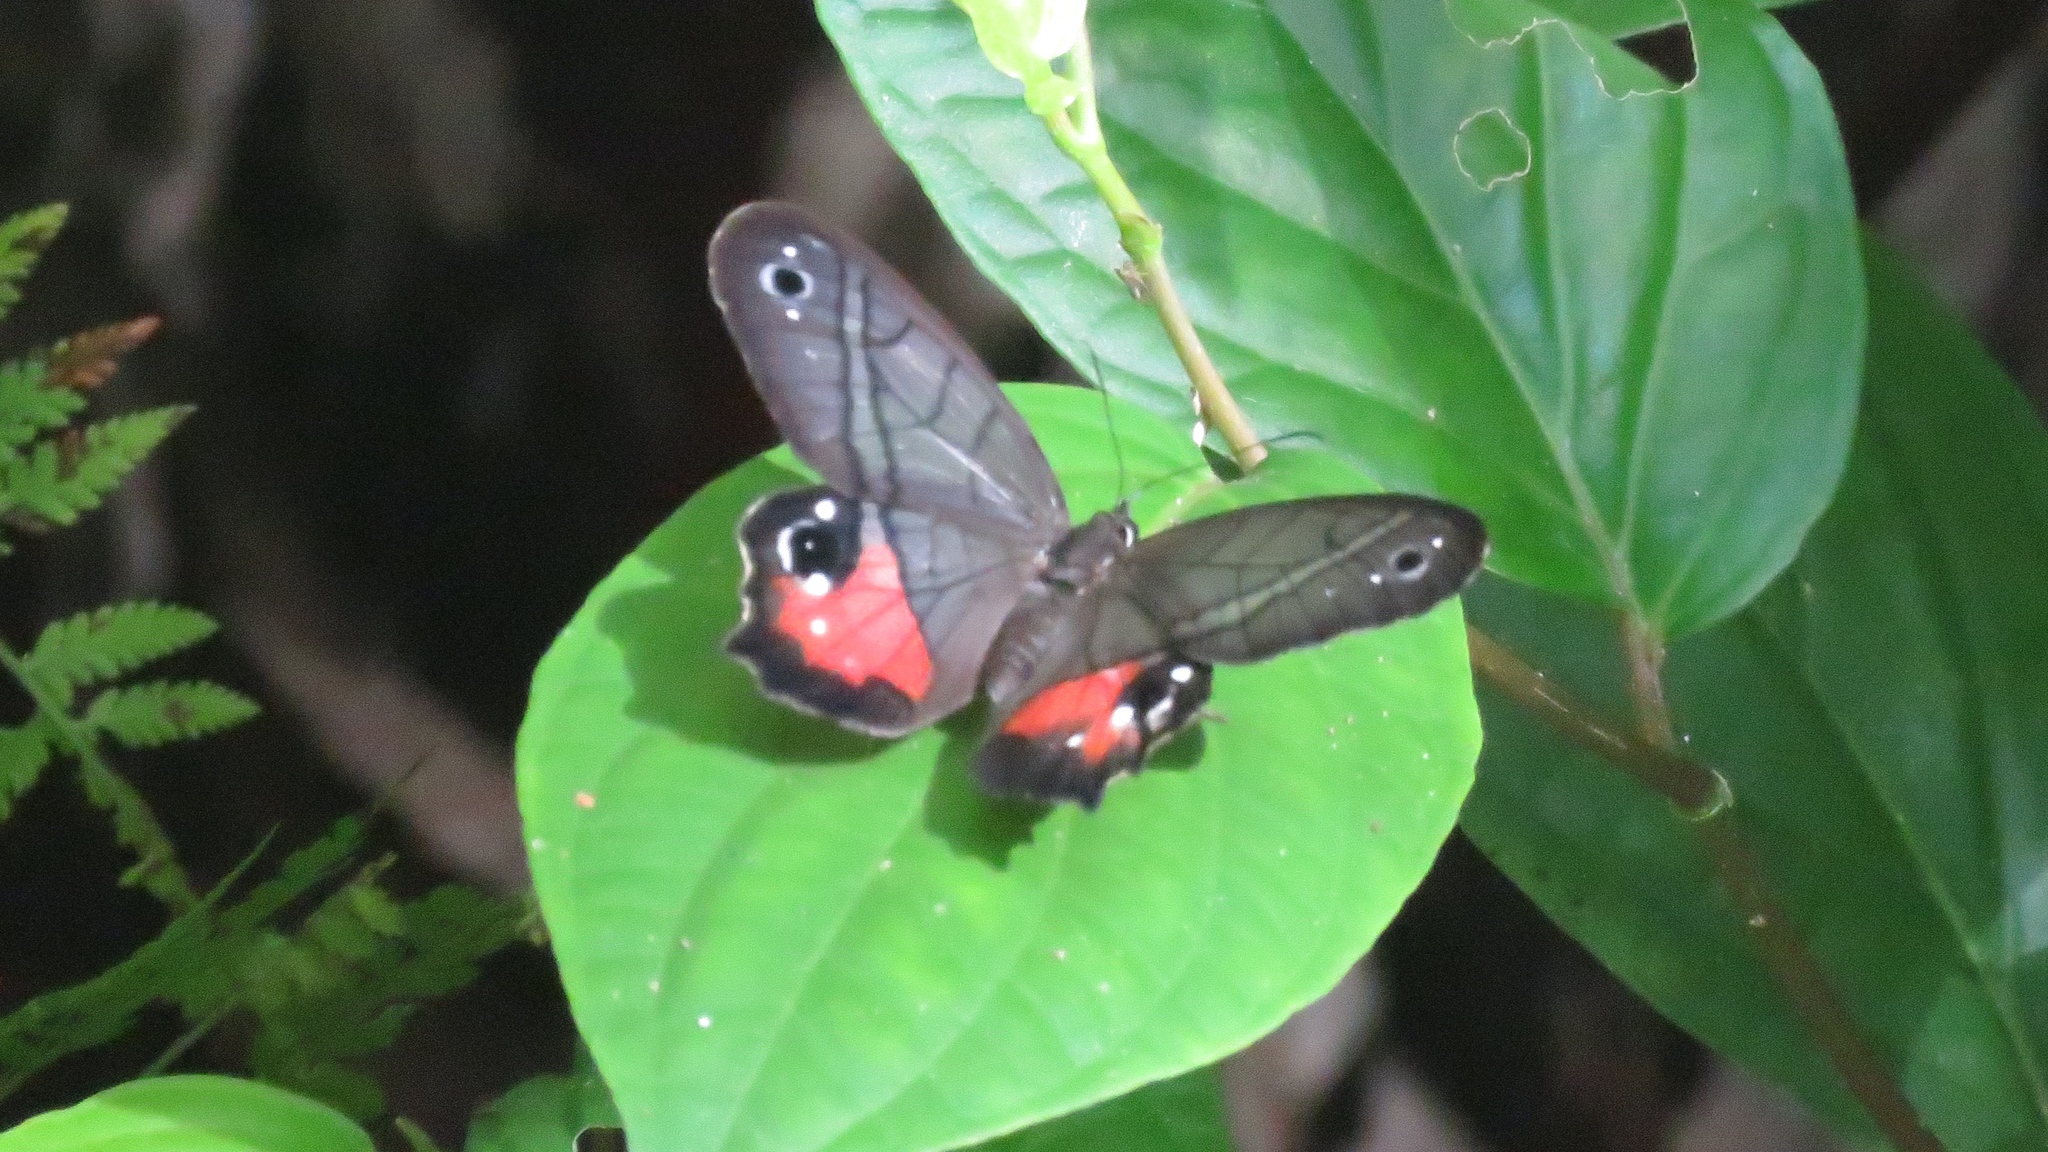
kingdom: Animalia
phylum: Arthropoda
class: Insecta
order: Lepidoptera
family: Nymphalidae
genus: Pierella
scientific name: Pierella helvina
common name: Red-washed satyr
